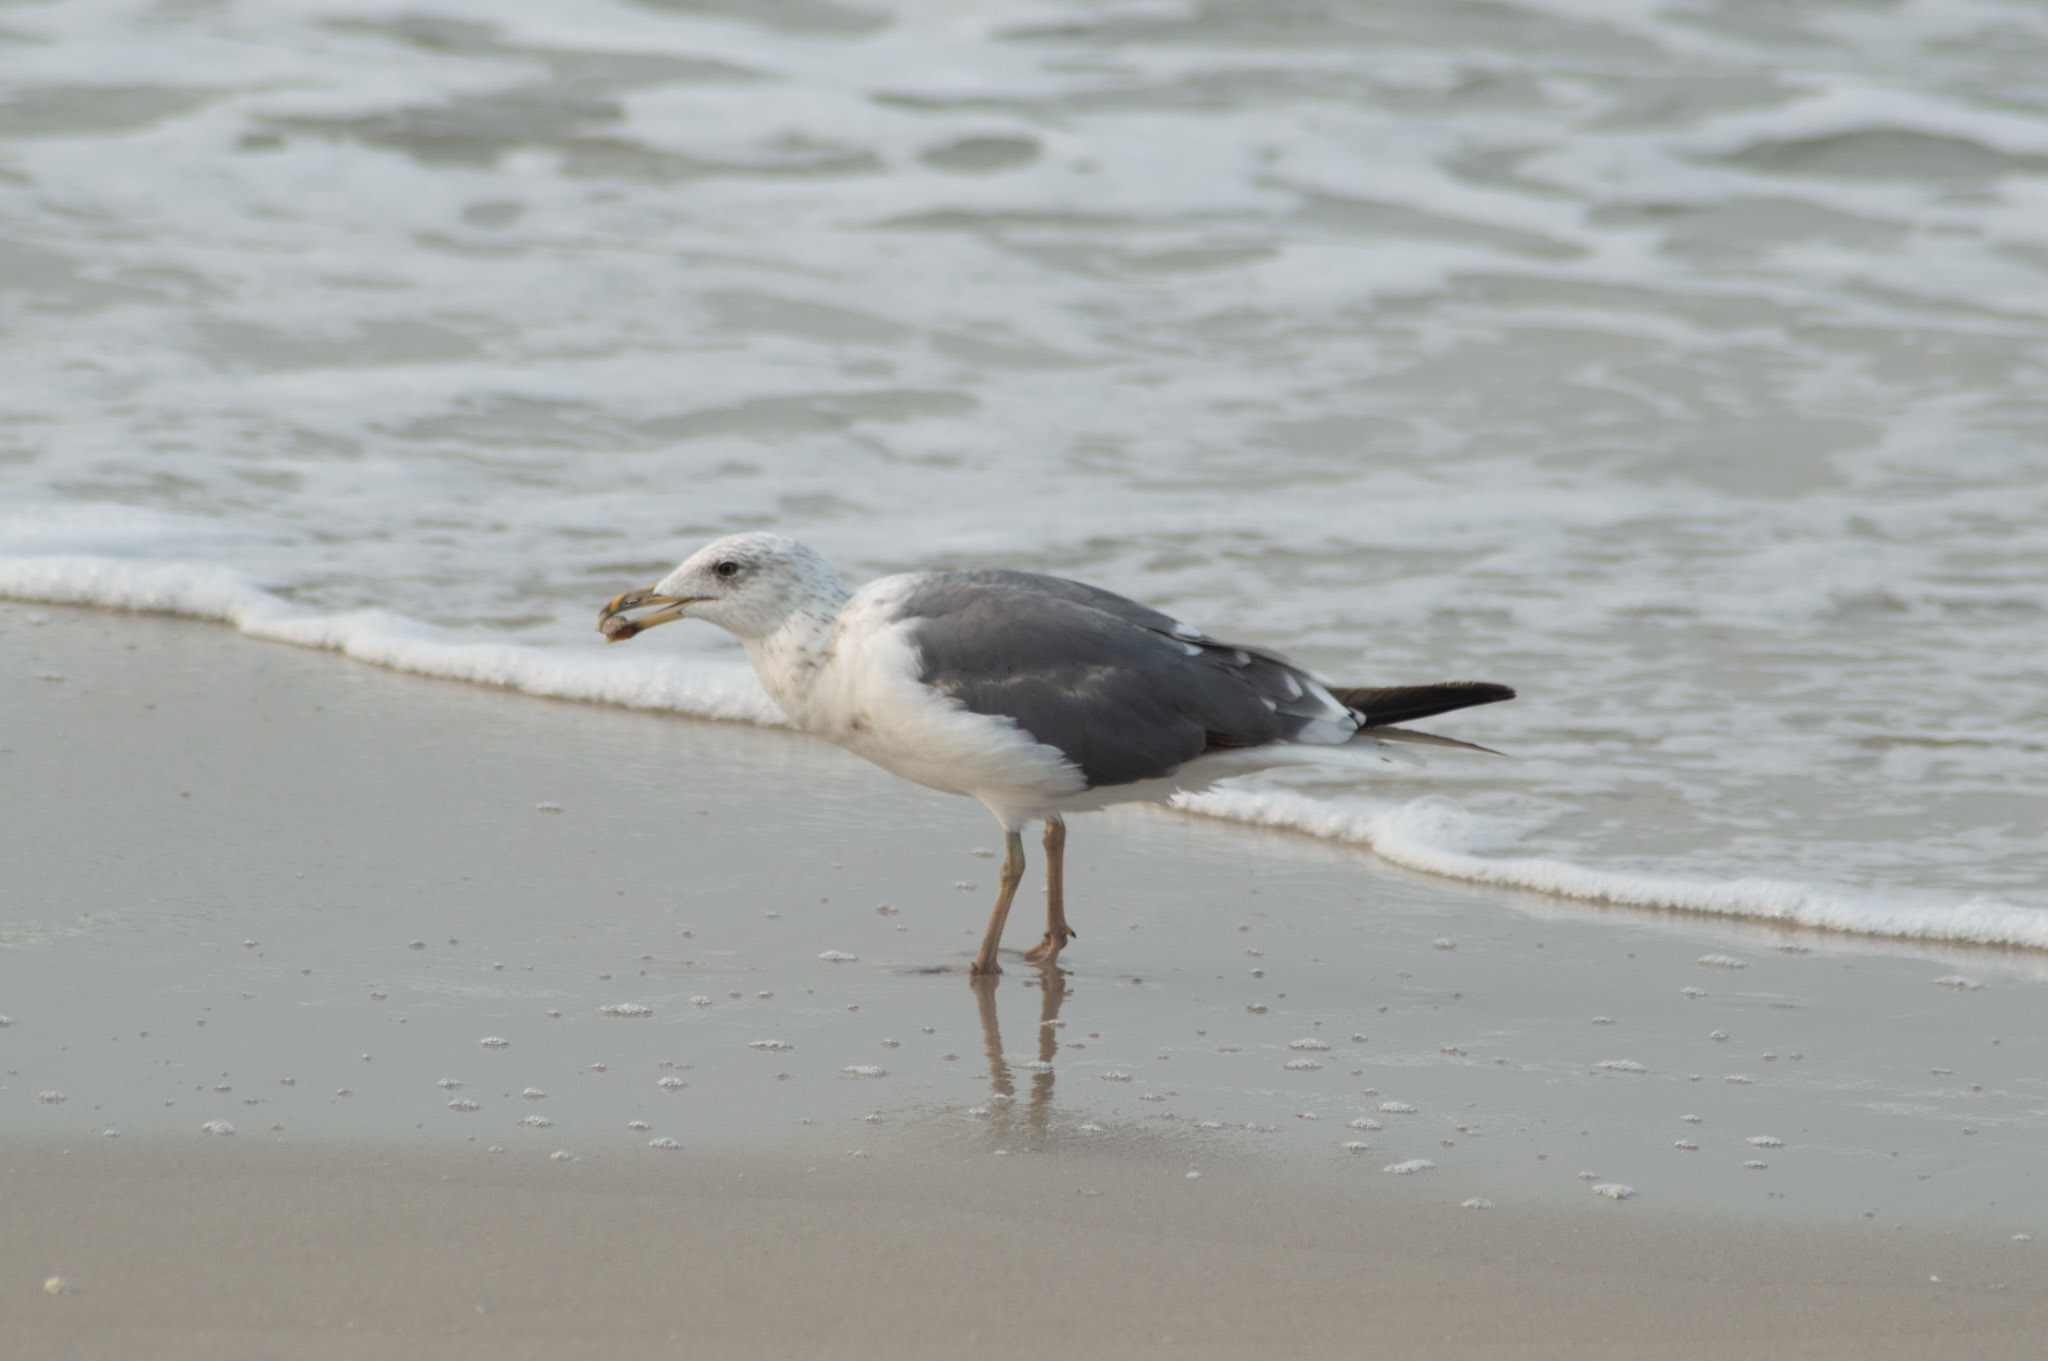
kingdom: Animalia
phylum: Chordata
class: Aves
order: Charadriiformes
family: Laridae
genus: Larus
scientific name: Larus fuscus
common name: Lesser black-backed gull
